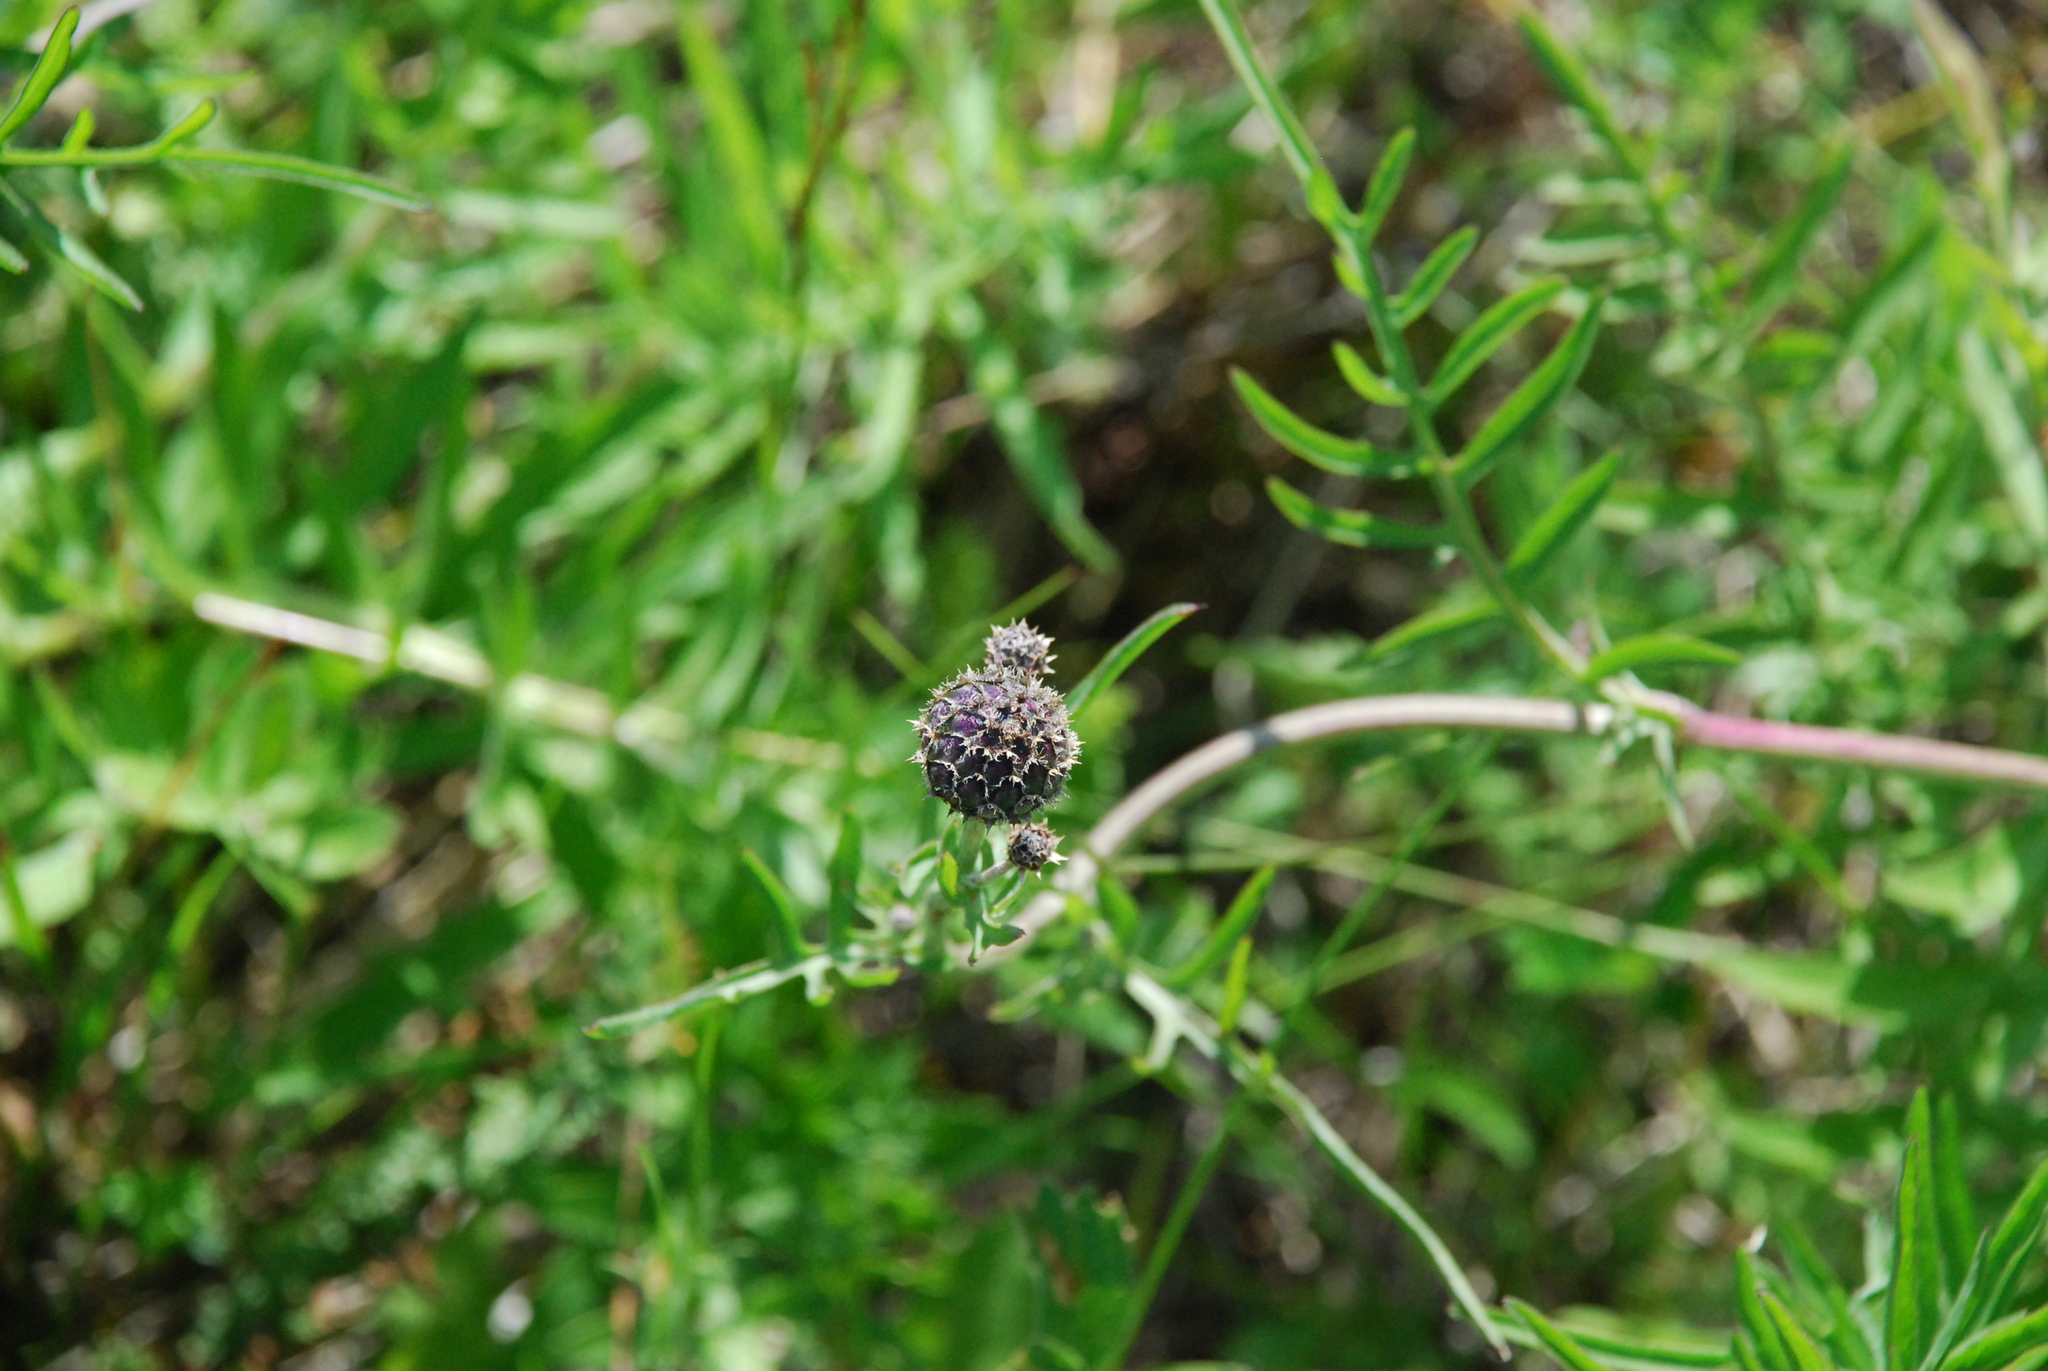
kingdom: Plantae
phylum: Tracheophyta
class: Magnoliopsida
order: Asterales
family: Asteraceae
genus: Centaurea
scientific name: Centaurea scabiosa
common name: Greater knapweed
